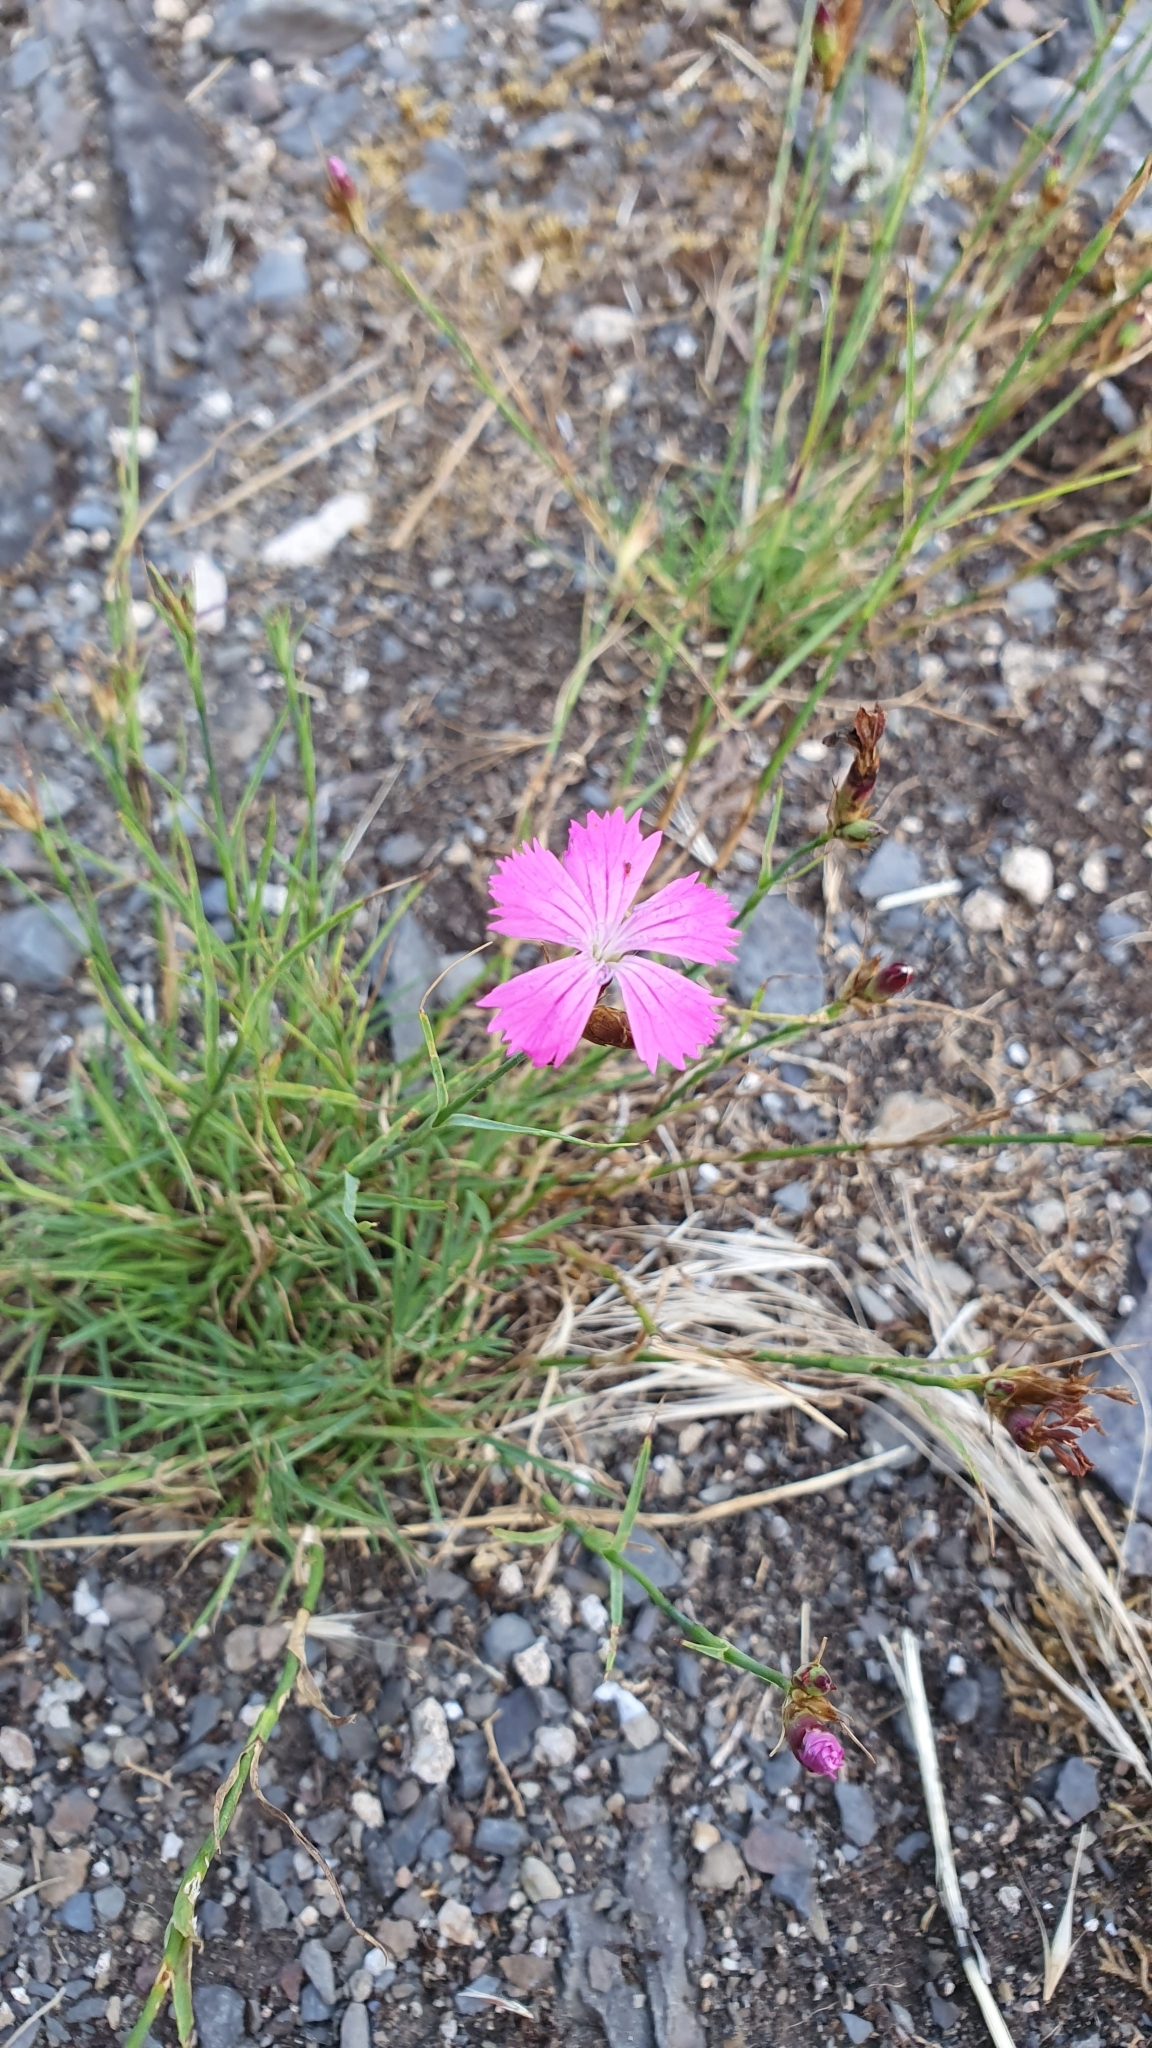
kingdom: Plantae
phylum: Tracheophyta
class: Magnoliopsida
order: Caryophyllales
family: Caryophyllaceae
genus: Dianthus
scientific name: Dianthus carthusianorum
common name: Carthusian pink
